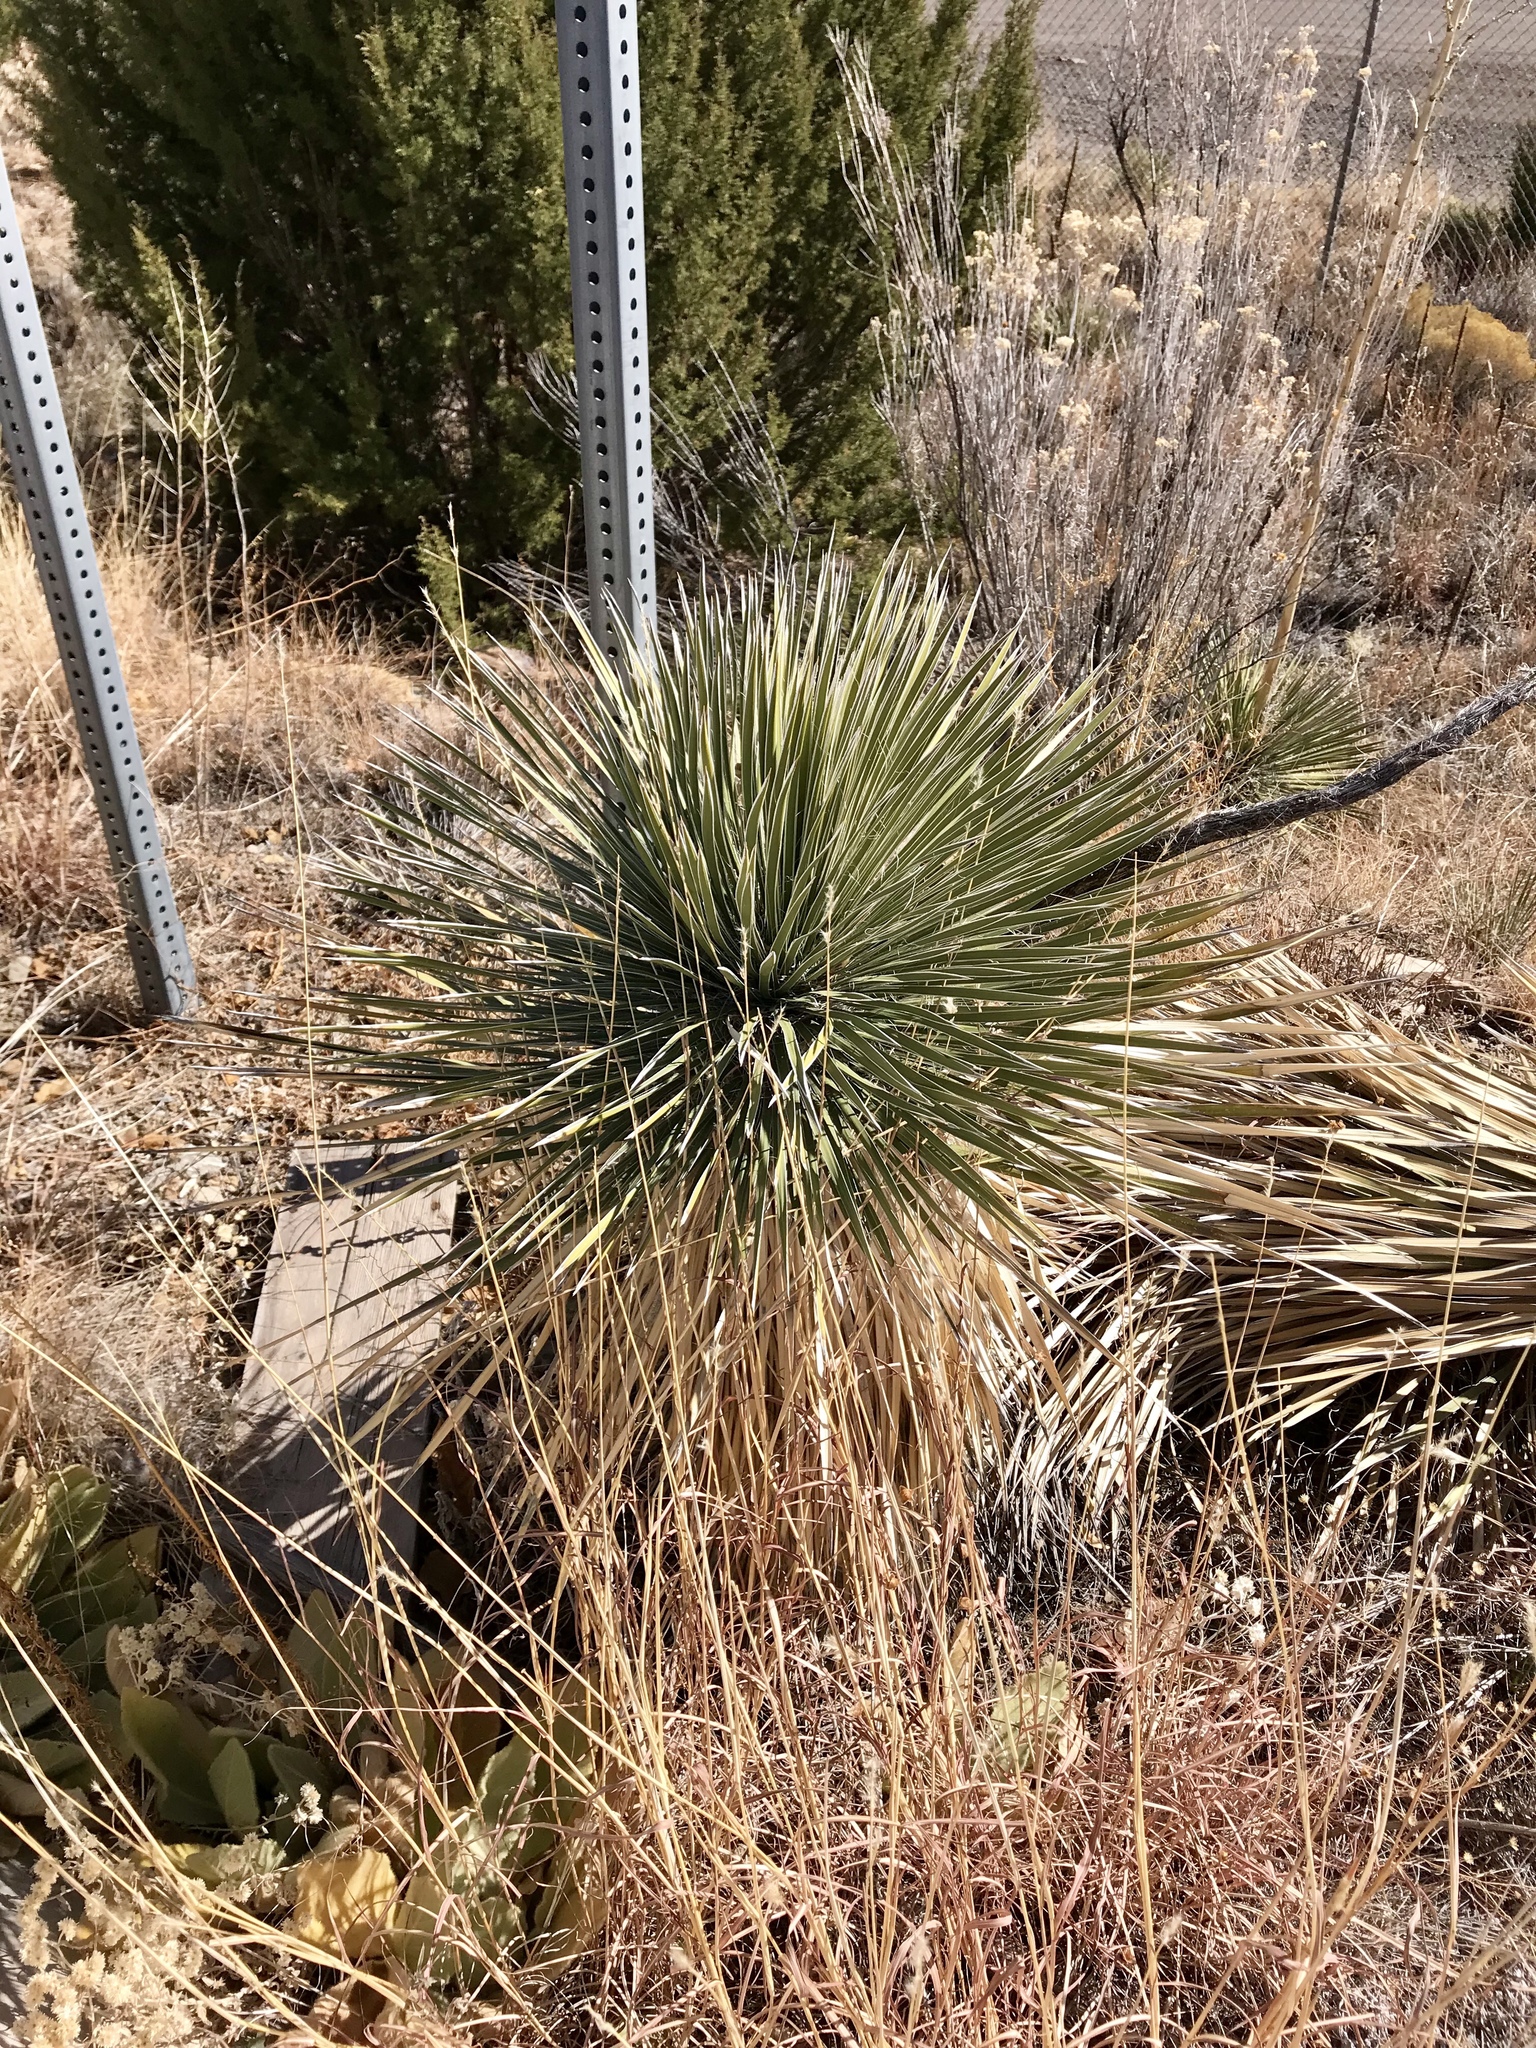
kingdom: Plantae
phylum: Tracheophyta
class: Liliopsida
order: Asparagales
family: Asparagaceae
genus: Yucca
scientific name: Yucca elata
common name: Palmella
